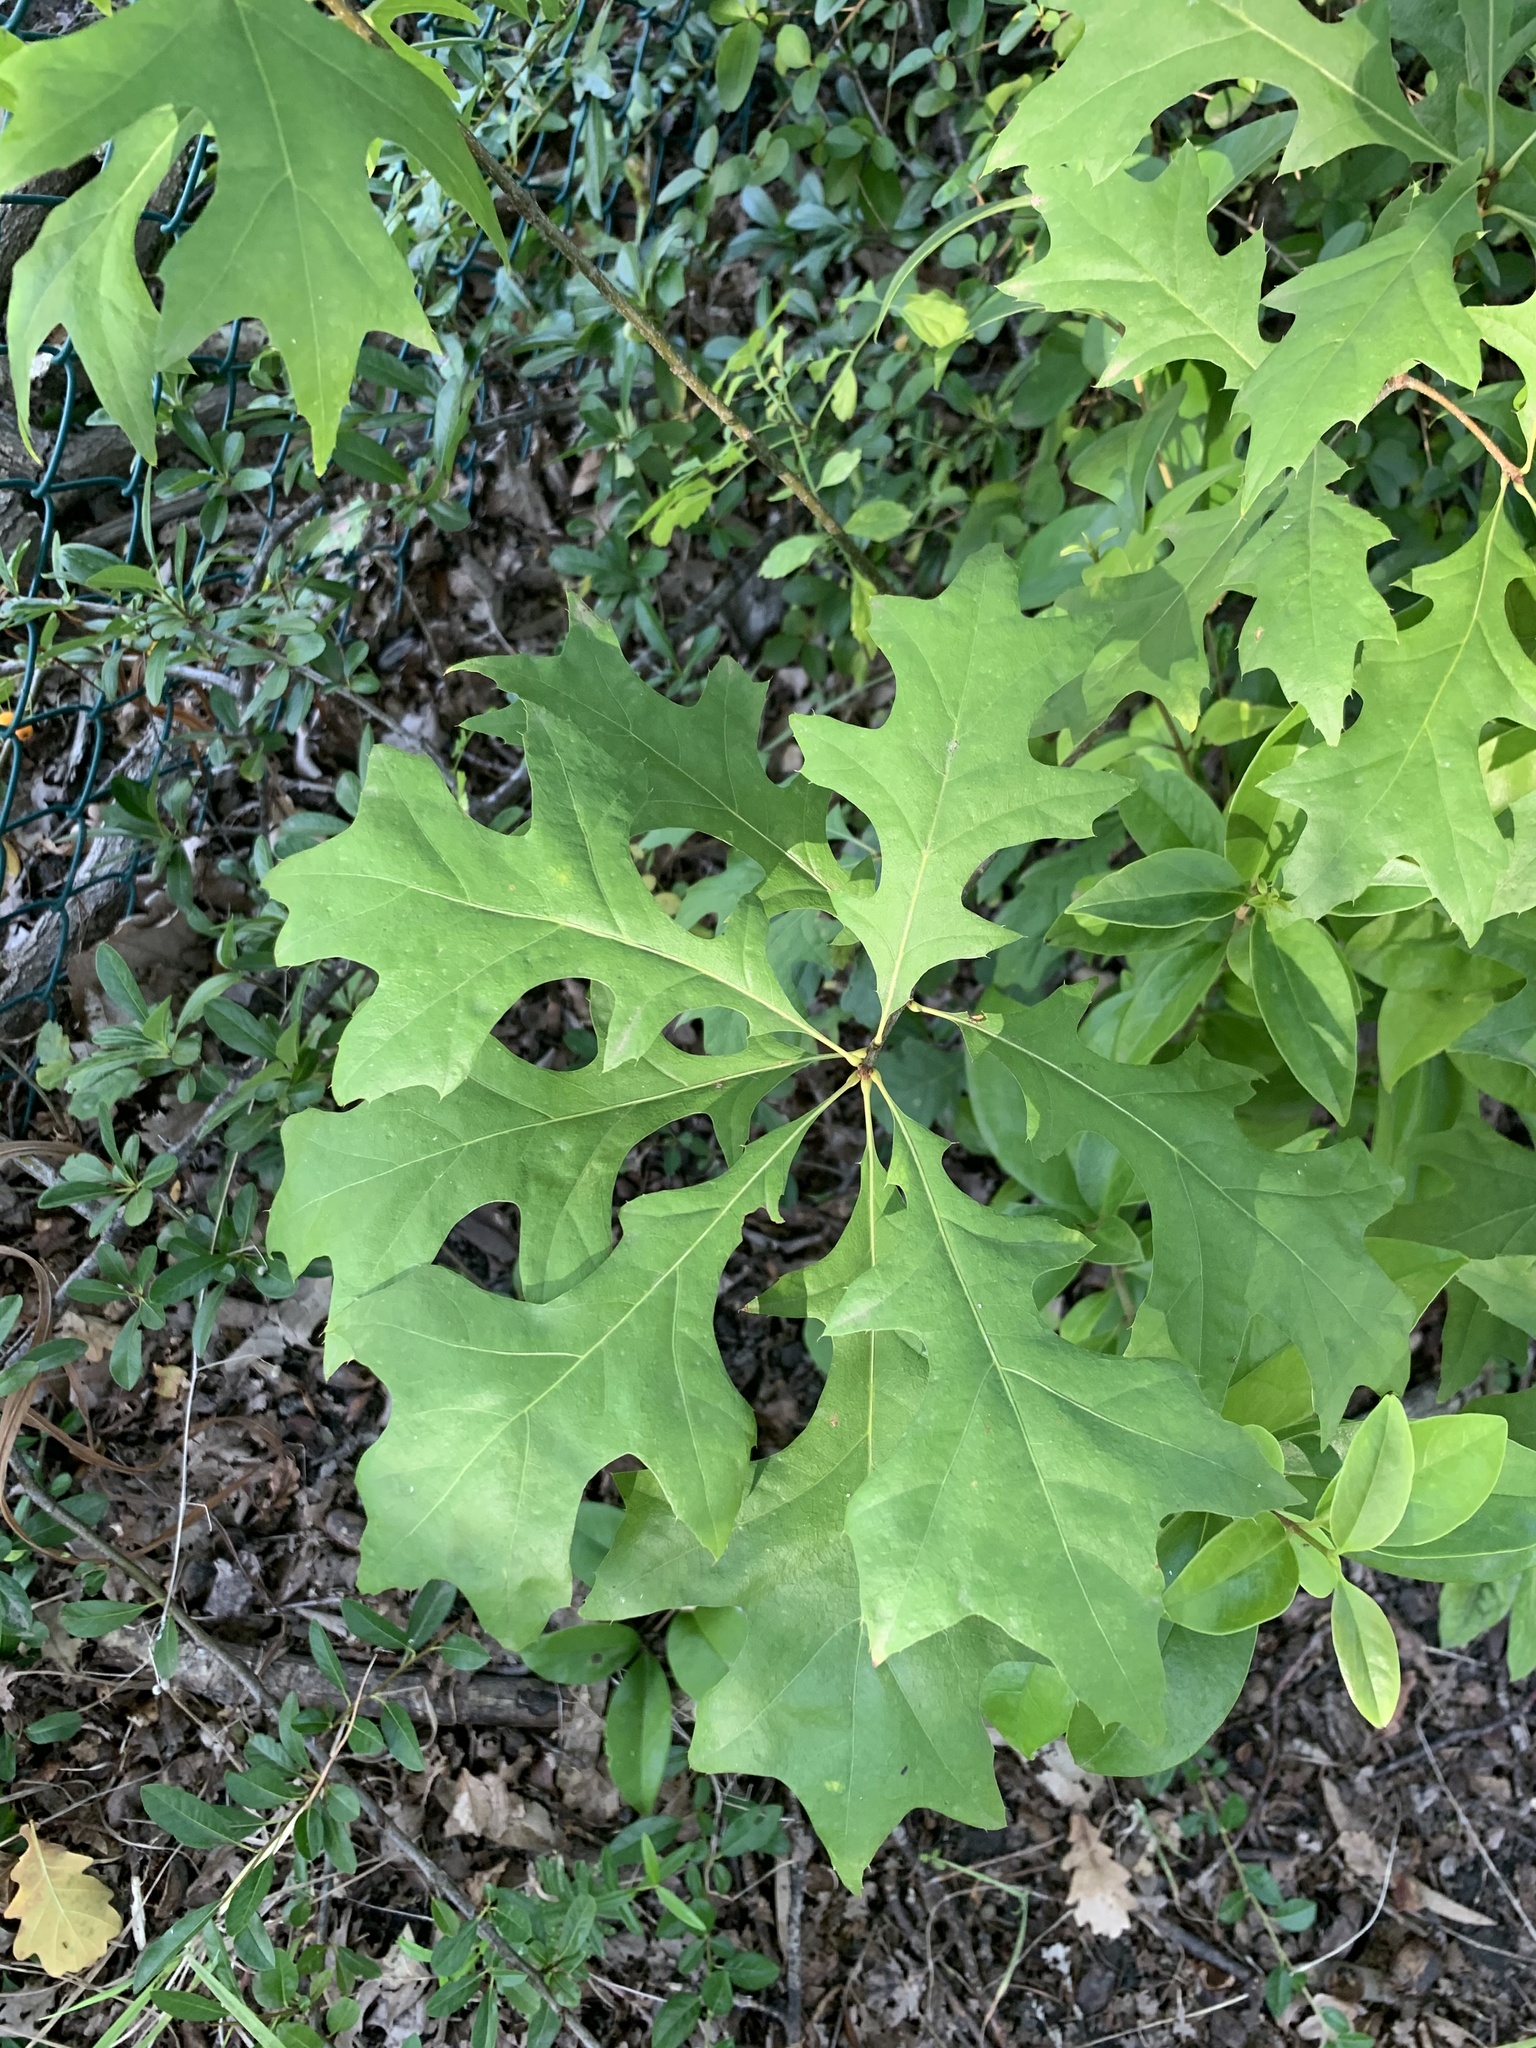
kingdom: Plantae
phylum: Tracheophyta
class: Magnoliopsida
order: Fagales
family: Fagaceae
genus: Quercus
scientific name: Quercus palustris
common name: Pin oak
